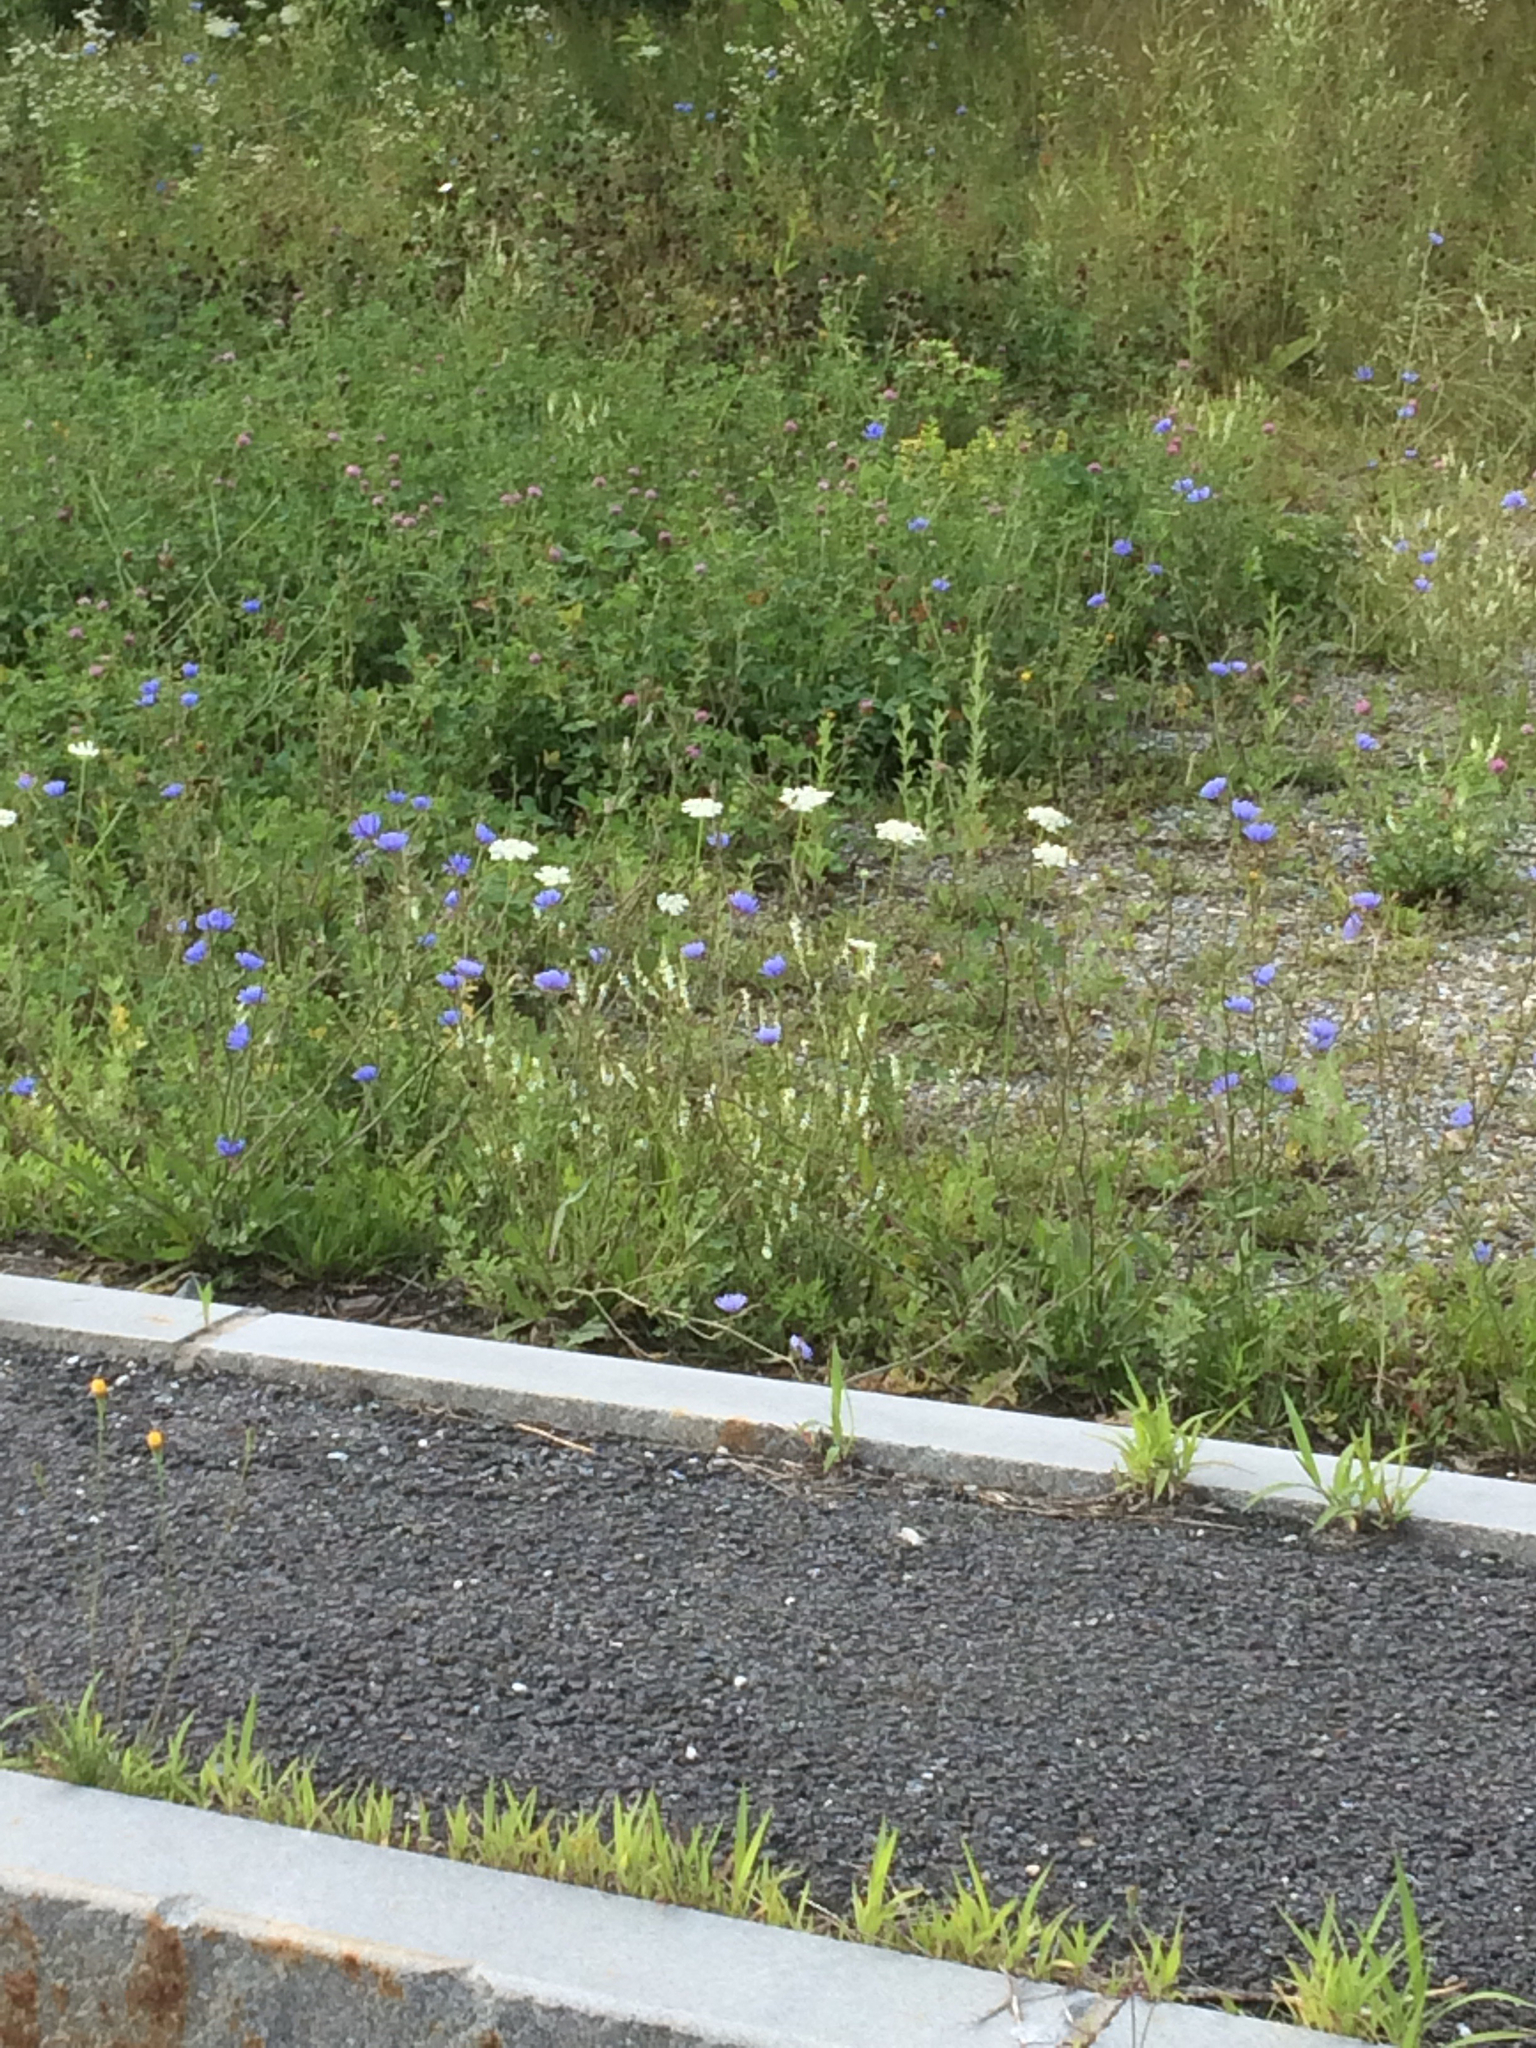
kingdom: Plantae
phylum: Tracheophyta
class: Magnoliopsida
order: Apiales
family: Apiaceae
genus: Daucus
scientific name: Daucus carota
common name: Wild carrot
